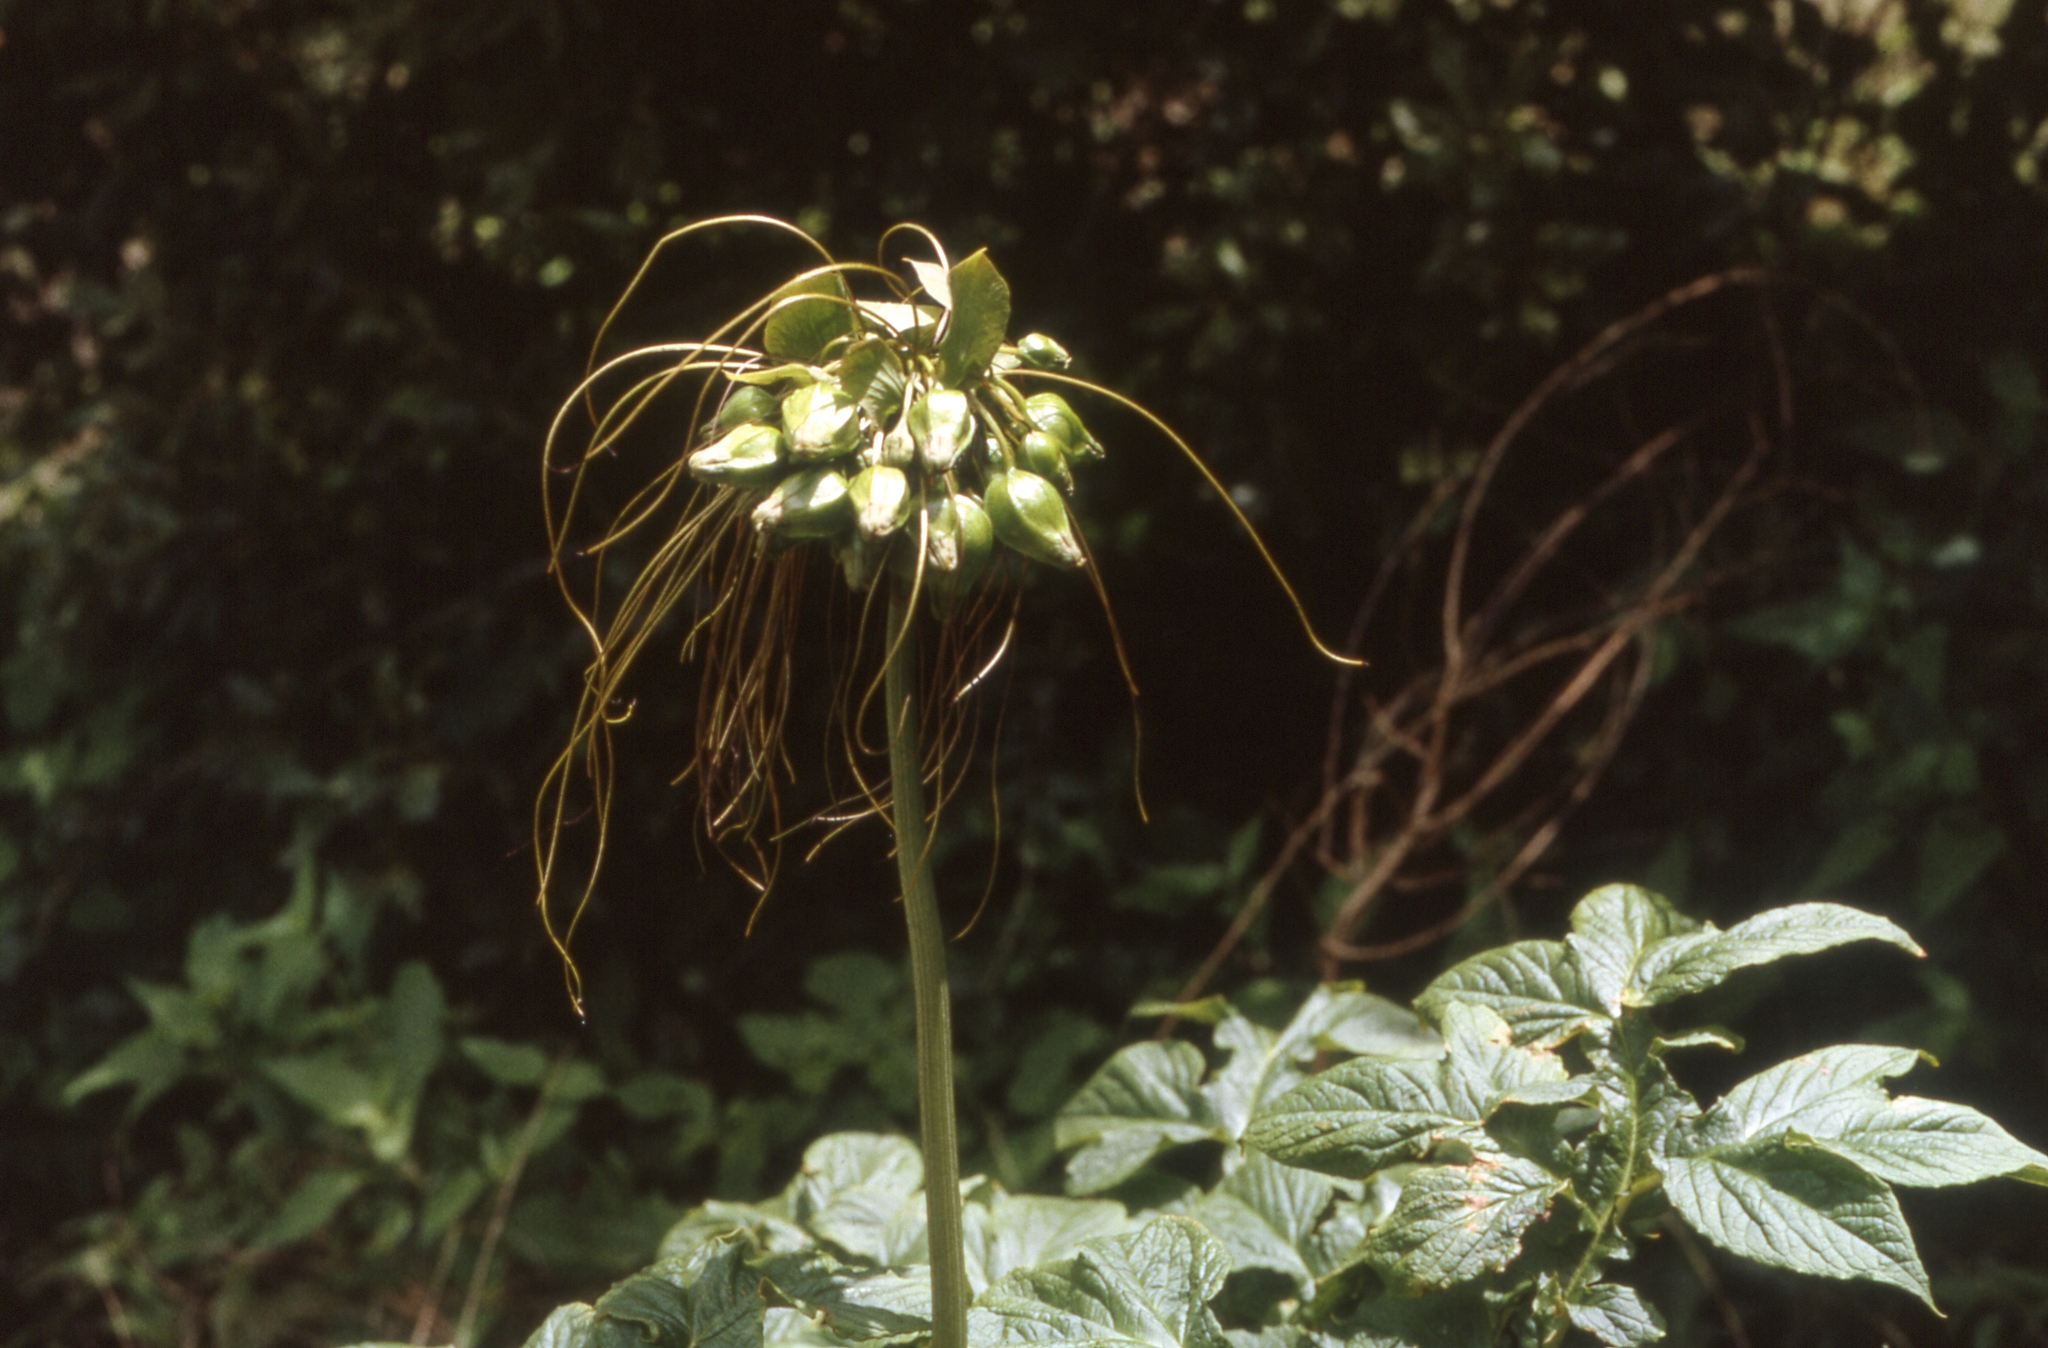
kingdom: Plantae
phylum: Tracheophyta
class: Liliopsida
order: Dioscoreales
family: Dioscoreaceae
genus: Tacca
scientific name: Tacca leontopetaloides
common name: Arrowroot
